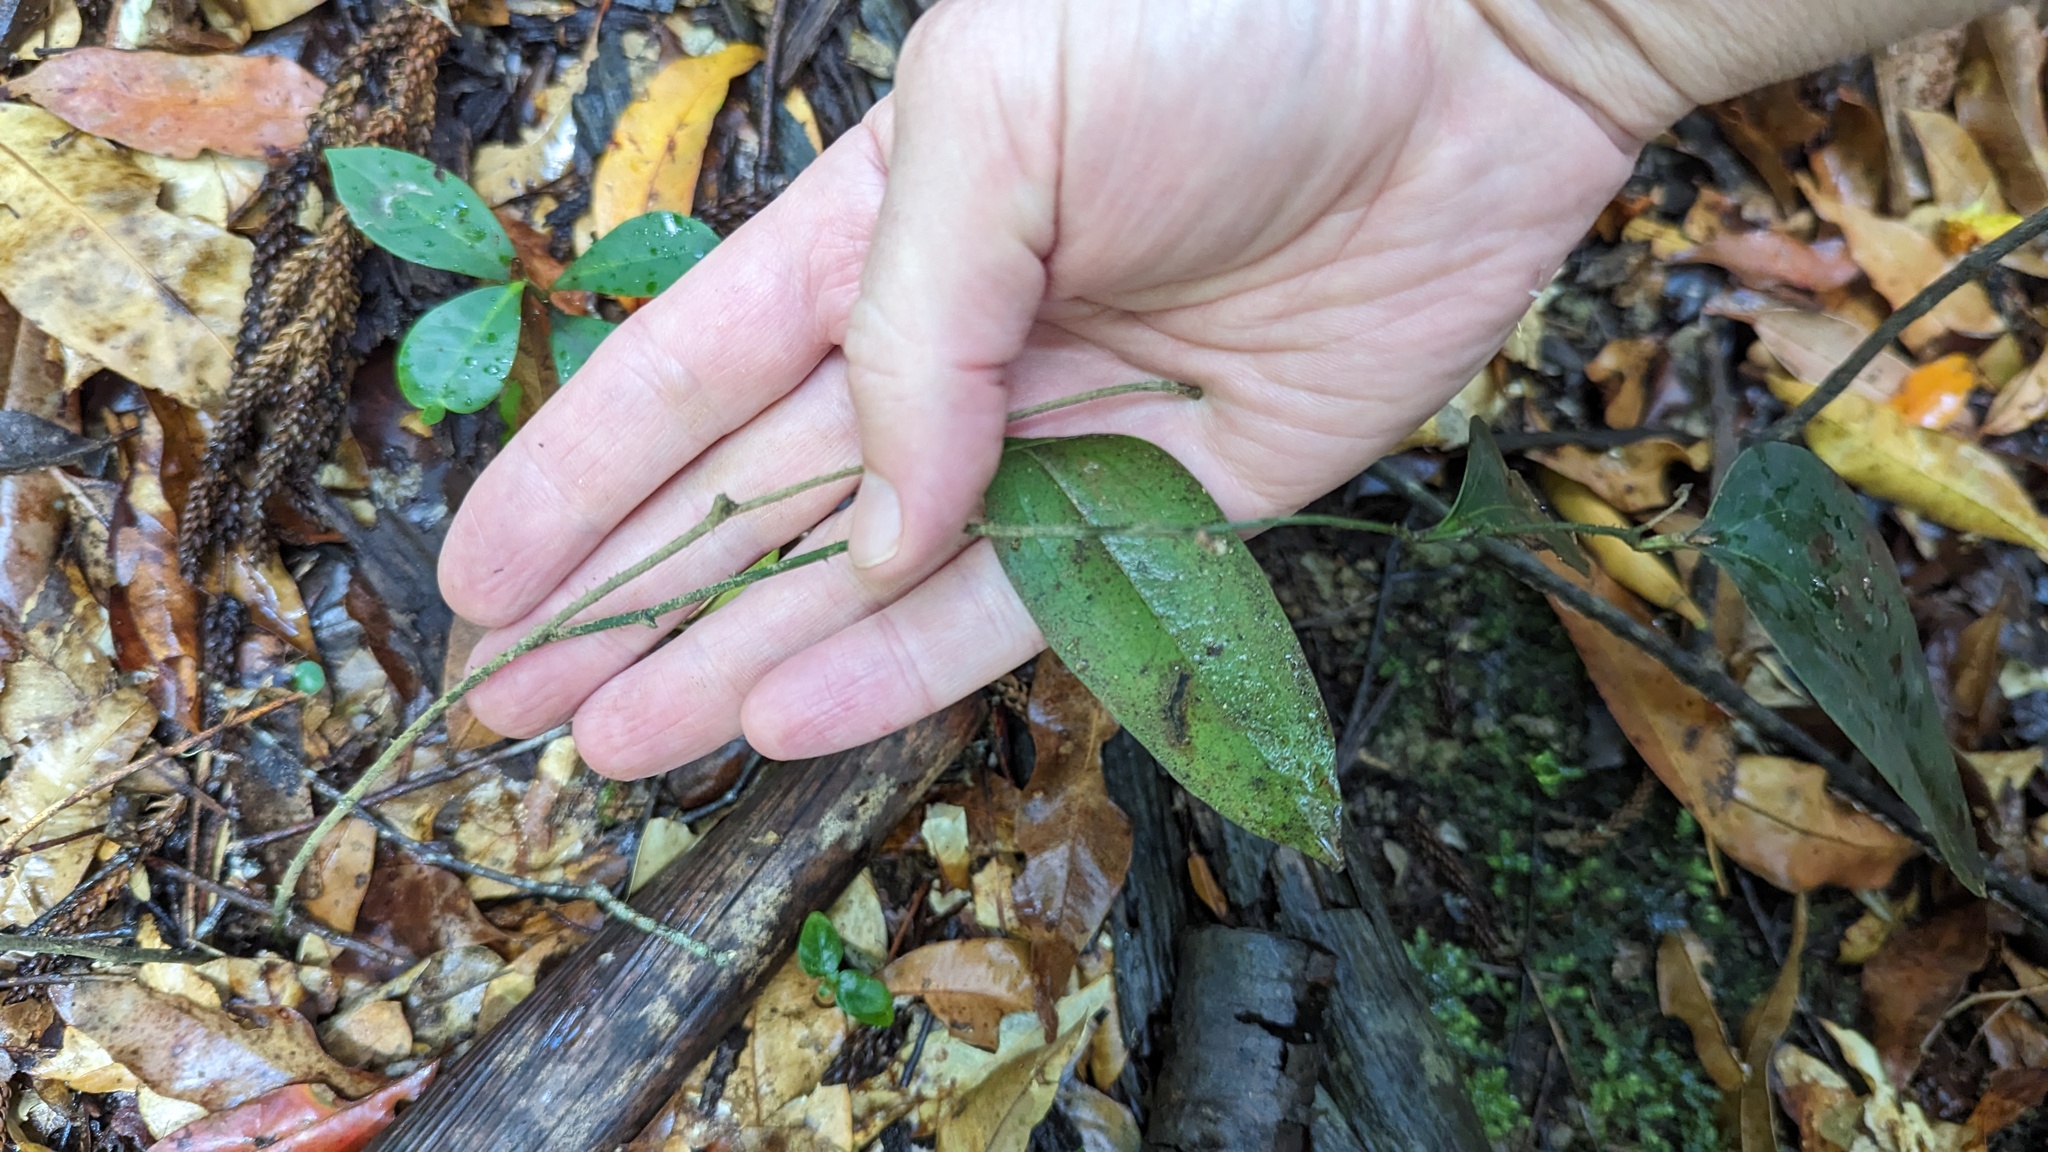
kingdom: Plantae
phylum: Tracheophyta
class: Liliopsida
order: Liliales
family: Smilacaceae
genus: Smilax
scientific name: Smilax australis
